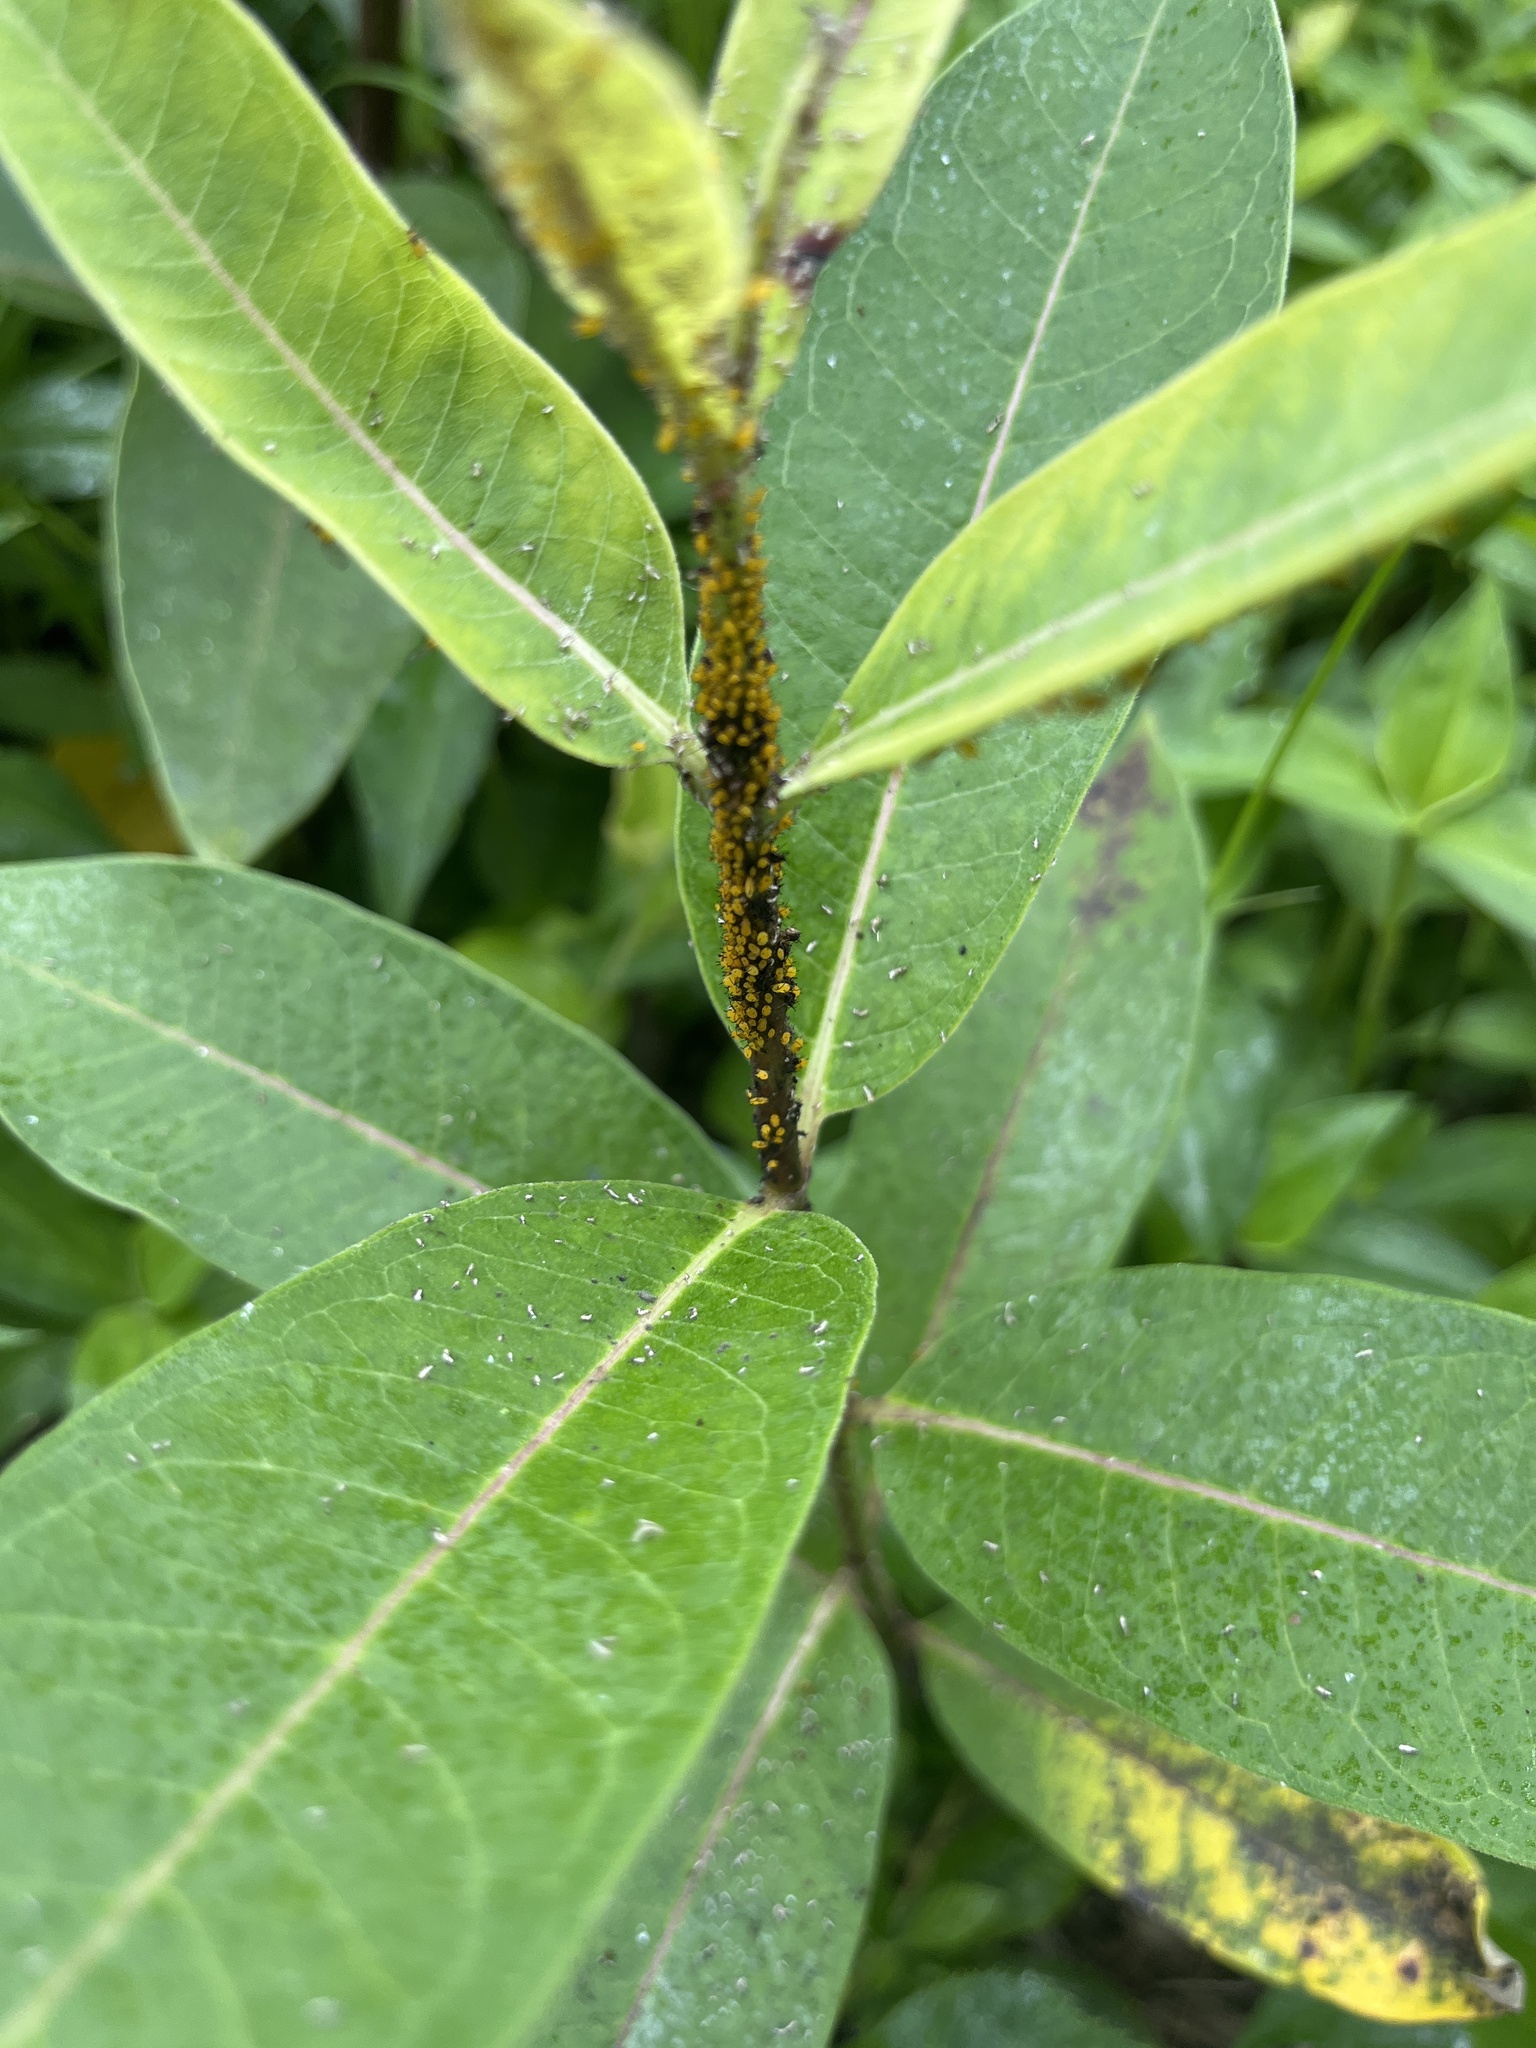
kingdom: Animalia
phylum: Arthropoda
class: Insecta
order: Hemiptera
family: Aphididae
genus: Aphis
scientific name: Aphis nerii
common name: Oleander aphid
